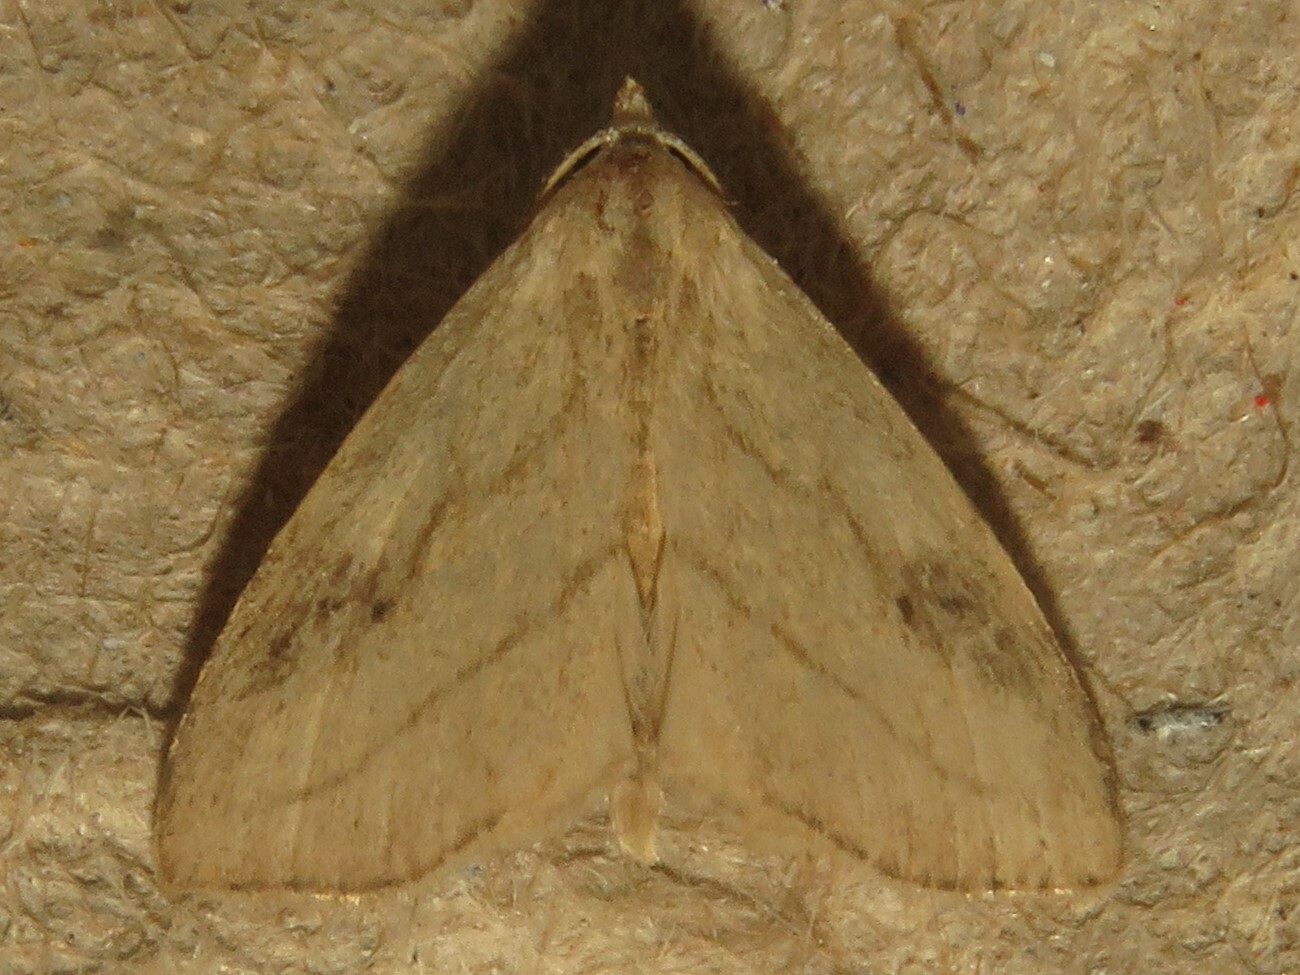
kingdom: Animalia
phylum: Arthropoda
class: Insecta
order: Lepidoptera
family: Erebidae
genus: Rivula
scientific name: Rivula propinqualis
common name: Spotted grass moth
